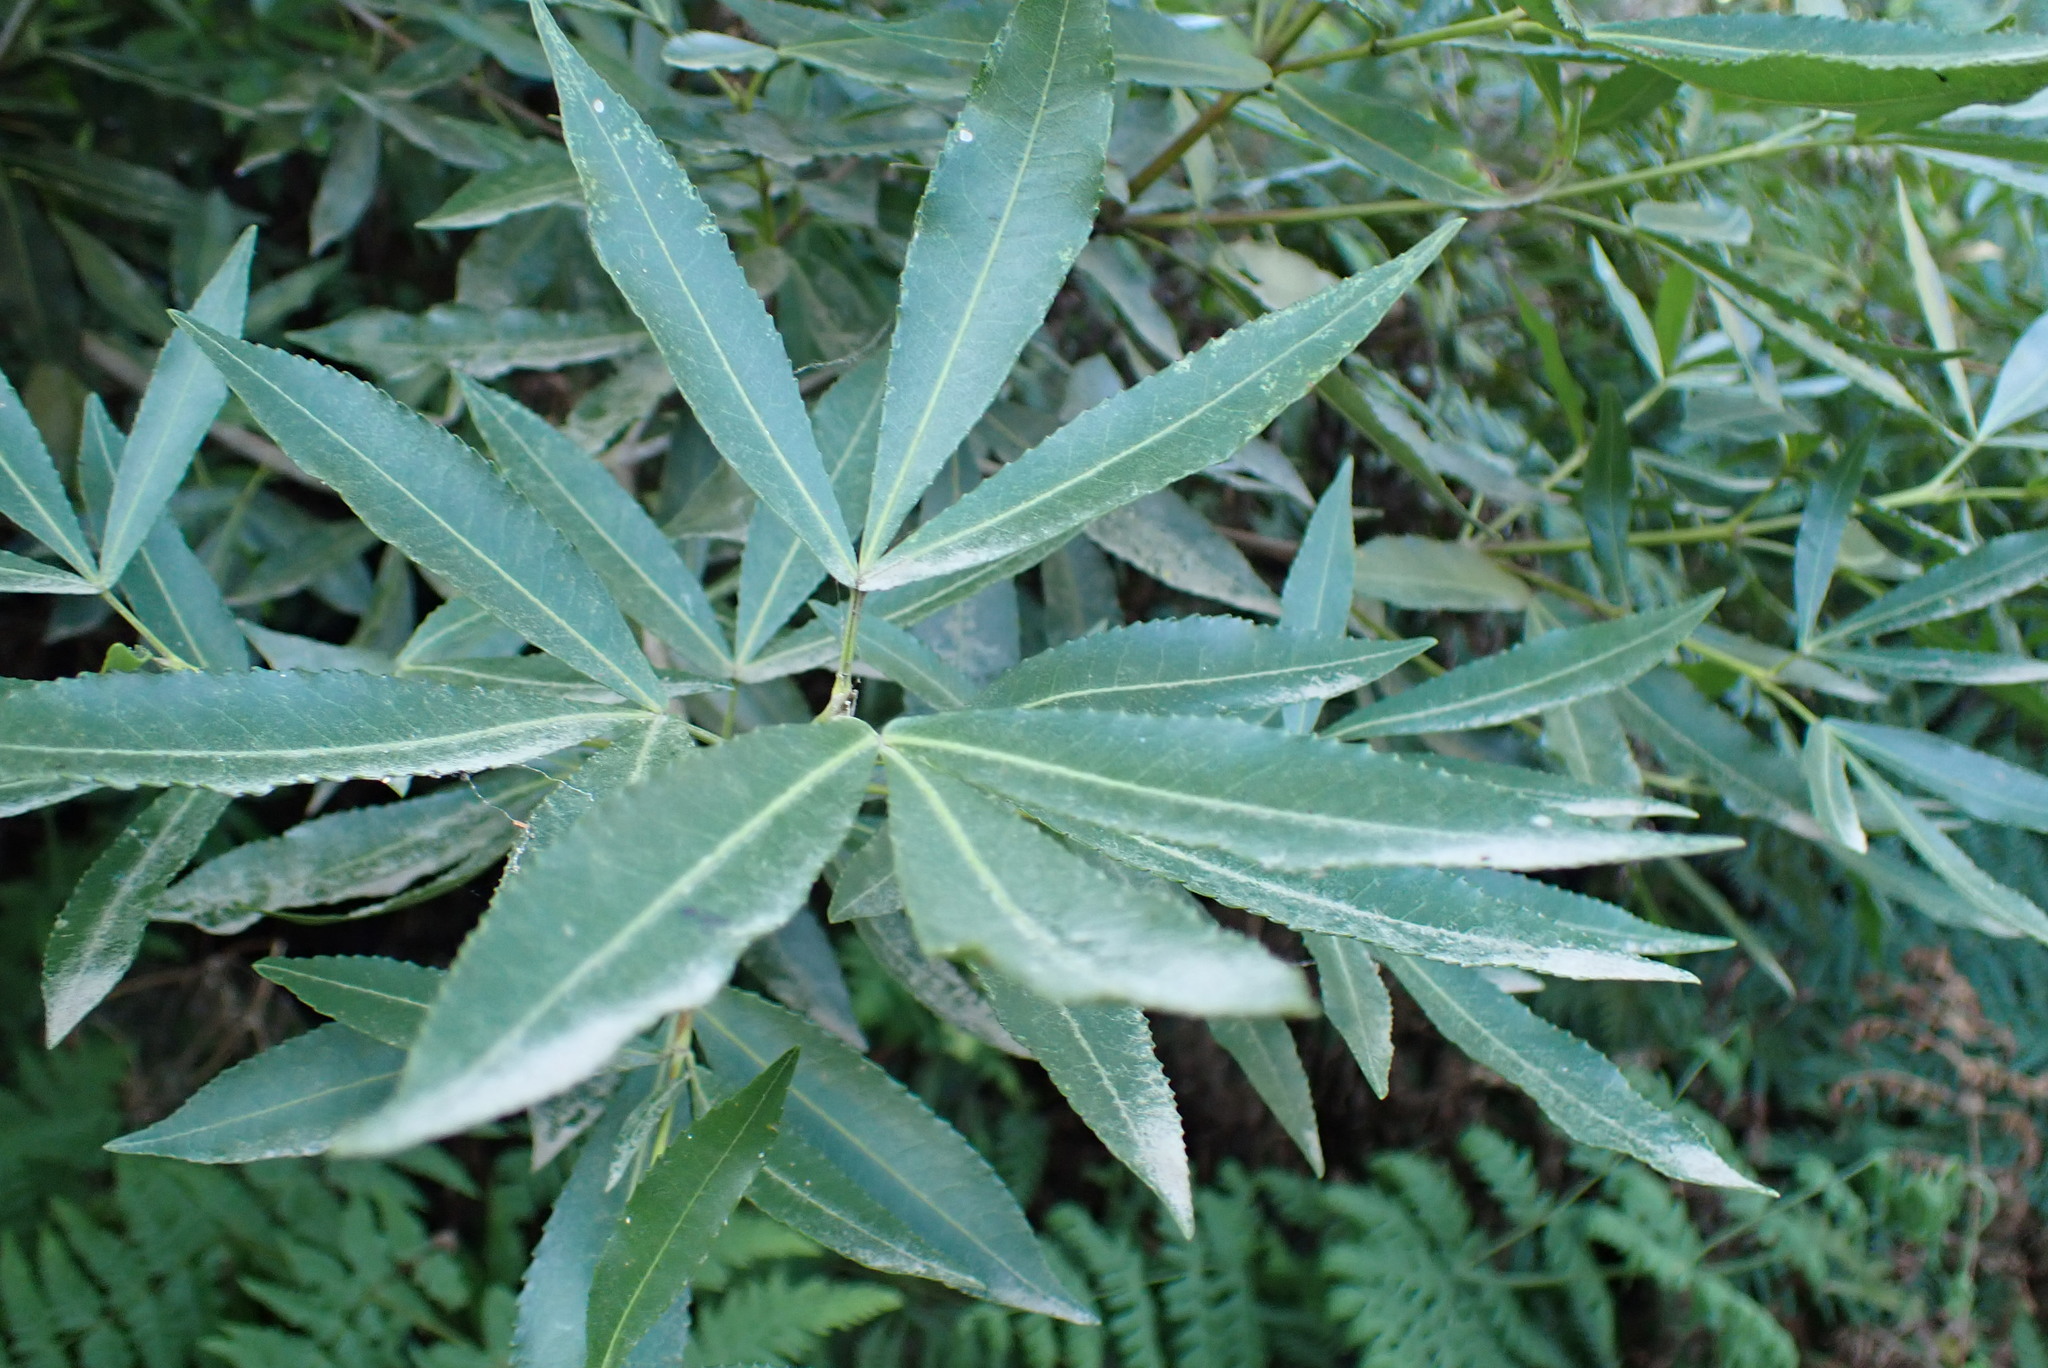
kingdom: Plantae
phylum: Tracheophyta
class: Magnoliopsida
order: Oxalidales
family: Cunoniaceae
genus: Platylophus
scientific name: Platylophus trifoliatus
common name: White alder
